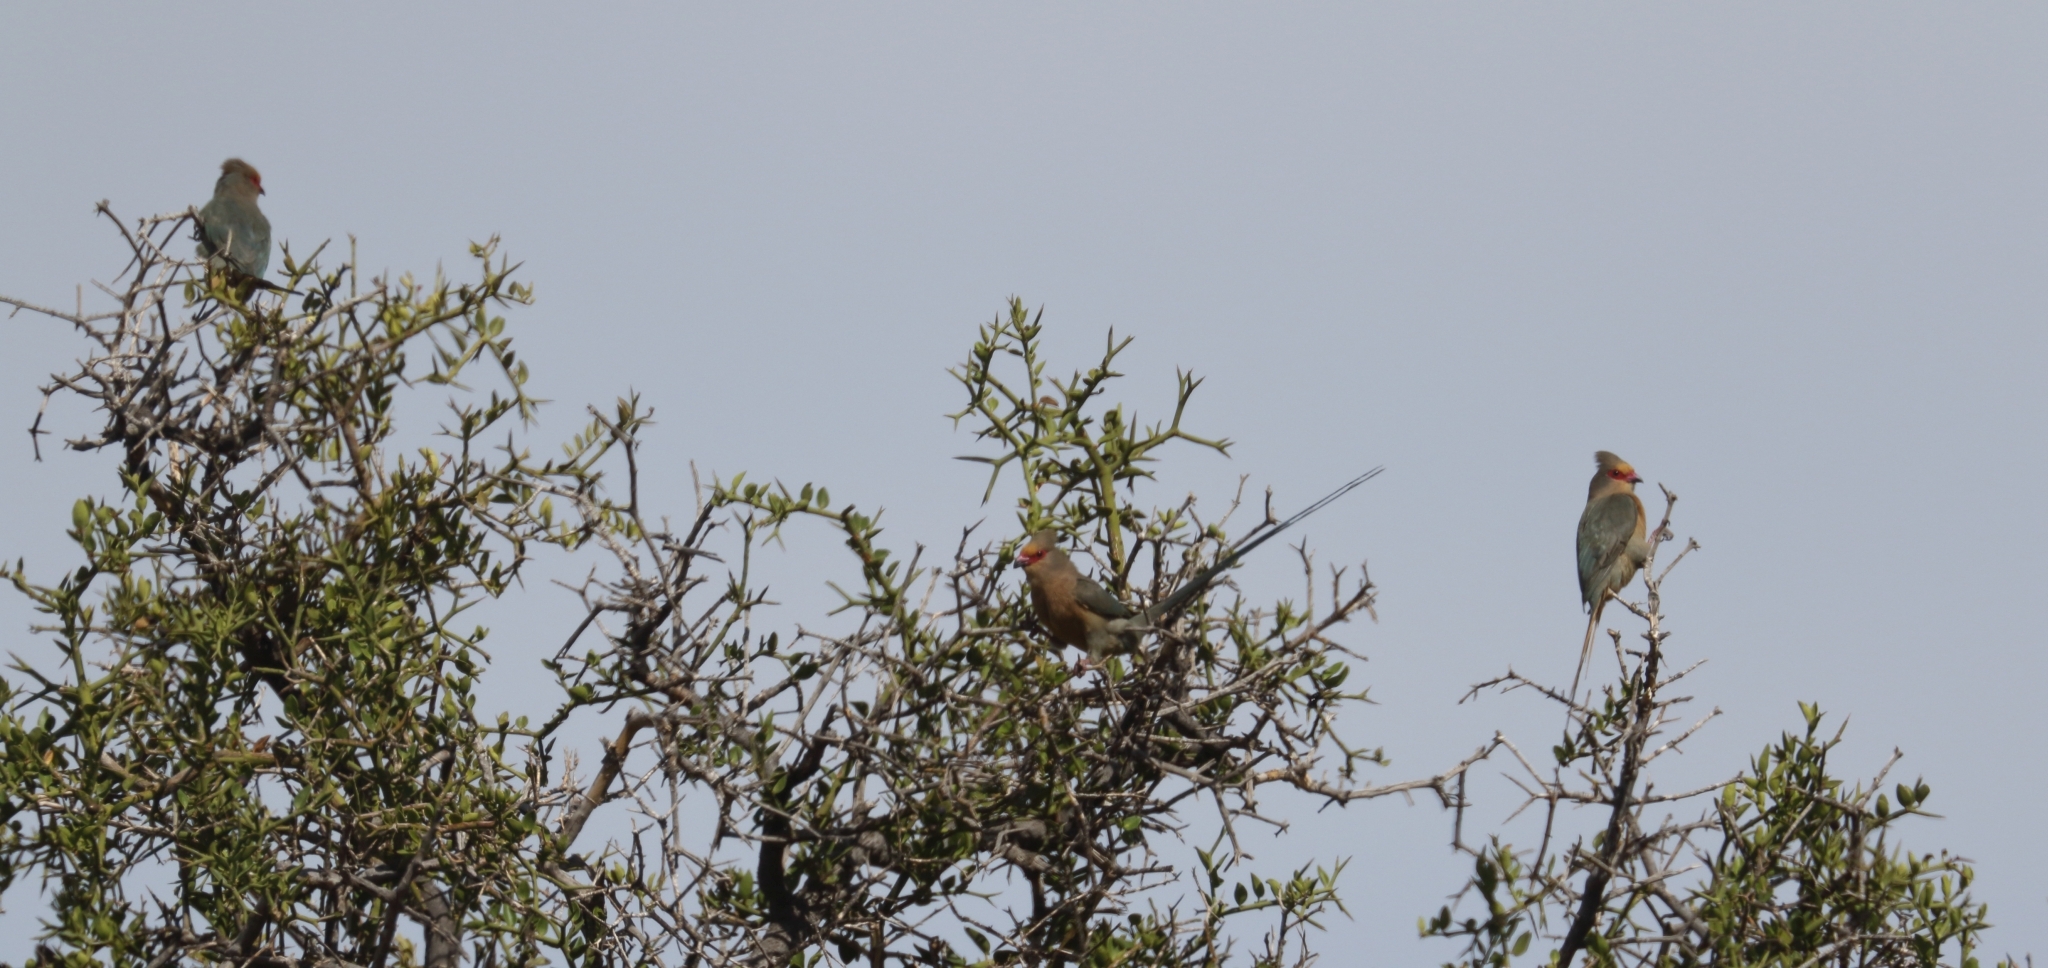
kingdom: Animalia
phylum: Chordata
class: Aves
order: Coliiformes
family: Coliidae
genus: Urocolius
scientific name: Urocolius indicus
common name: Red-faced mousebird
